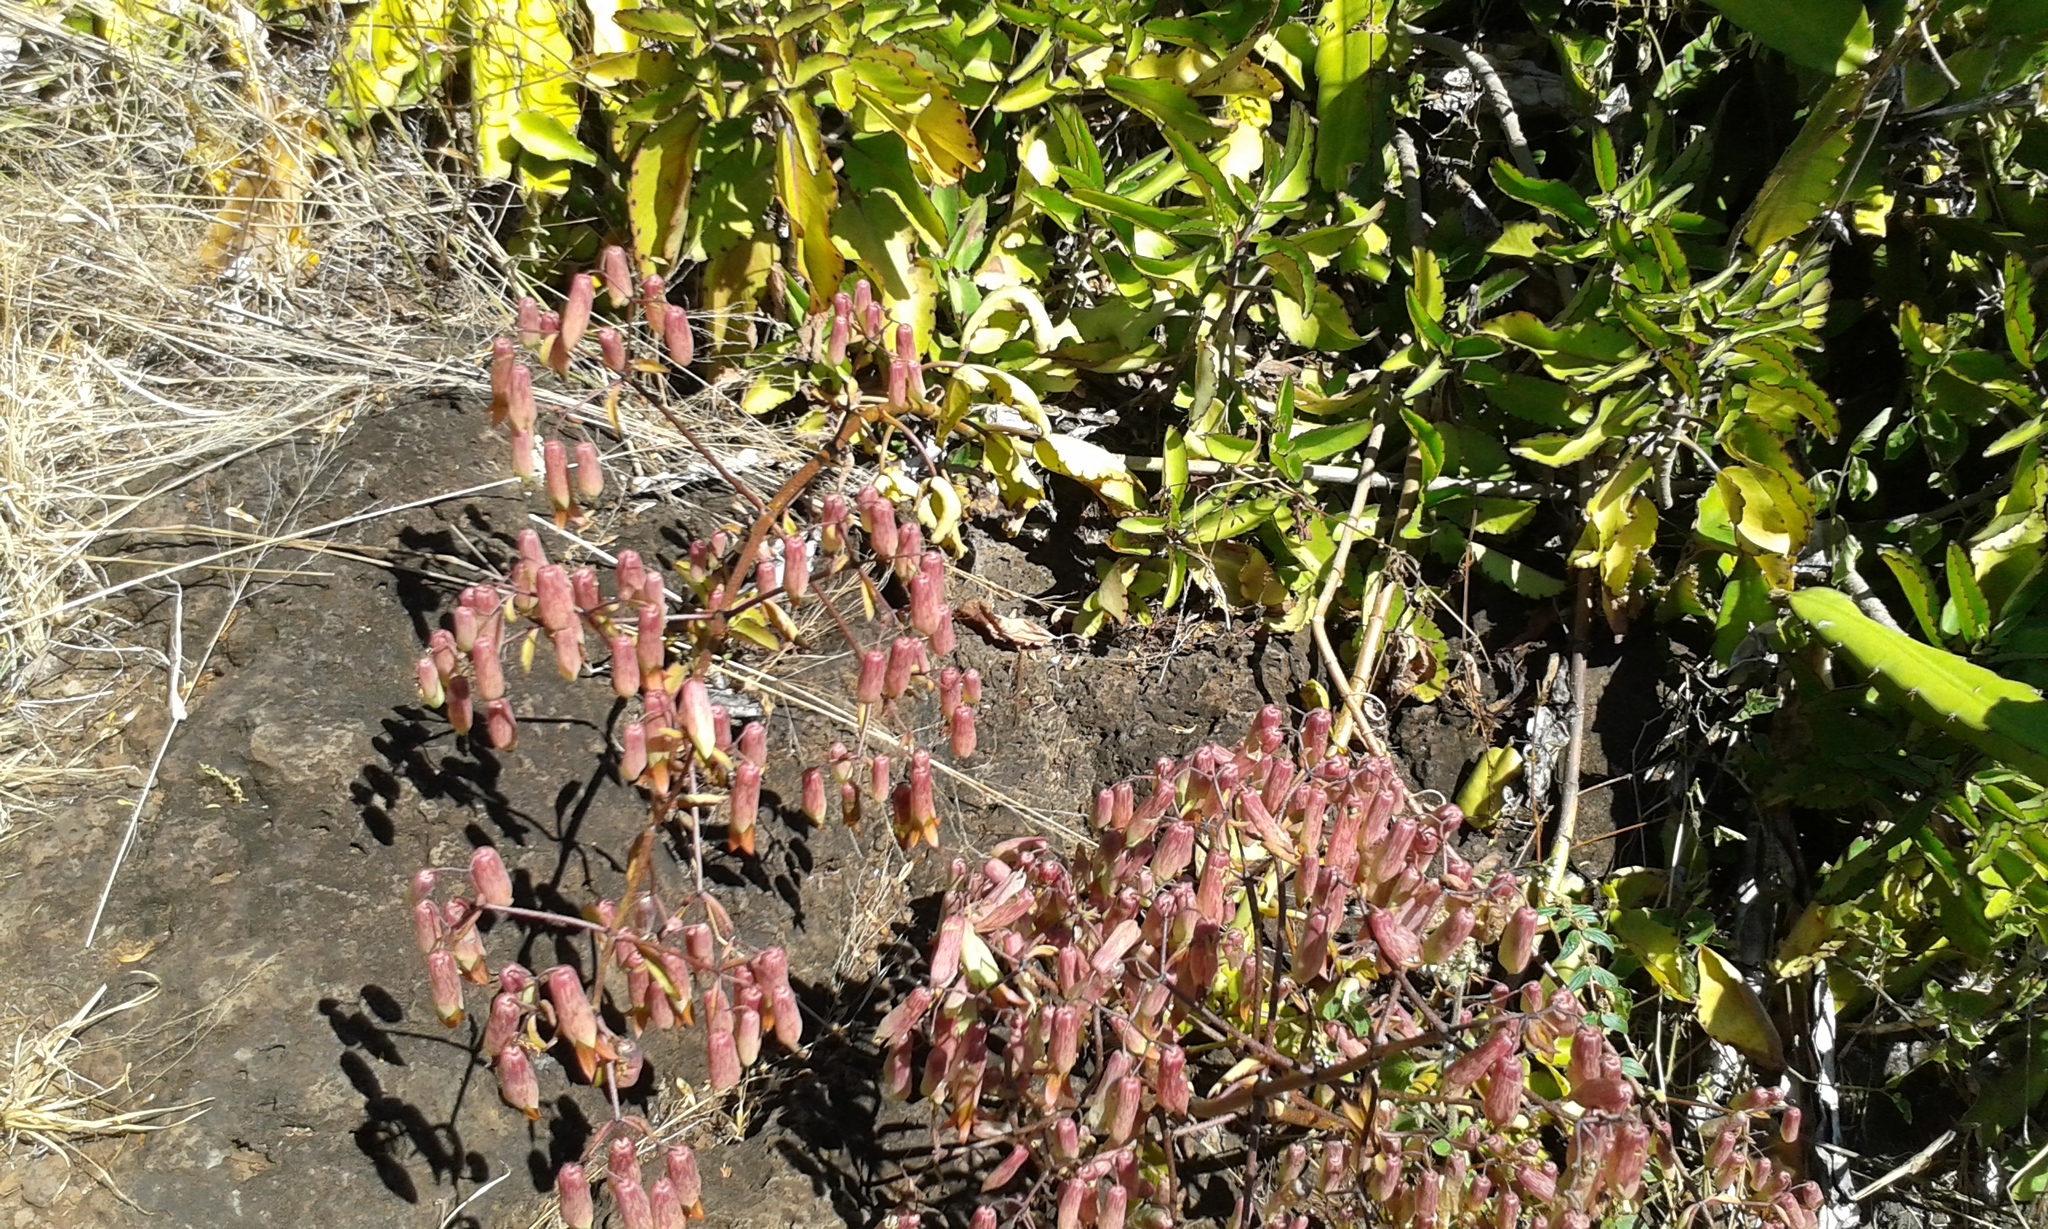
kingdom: Plantae
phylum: Tracheophyta
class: Magnoliopsida
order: Saxifragales
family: Crassulaceae
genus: Kalanchoe
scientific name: Kalanchoe pinnata
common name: Cathedral bells
